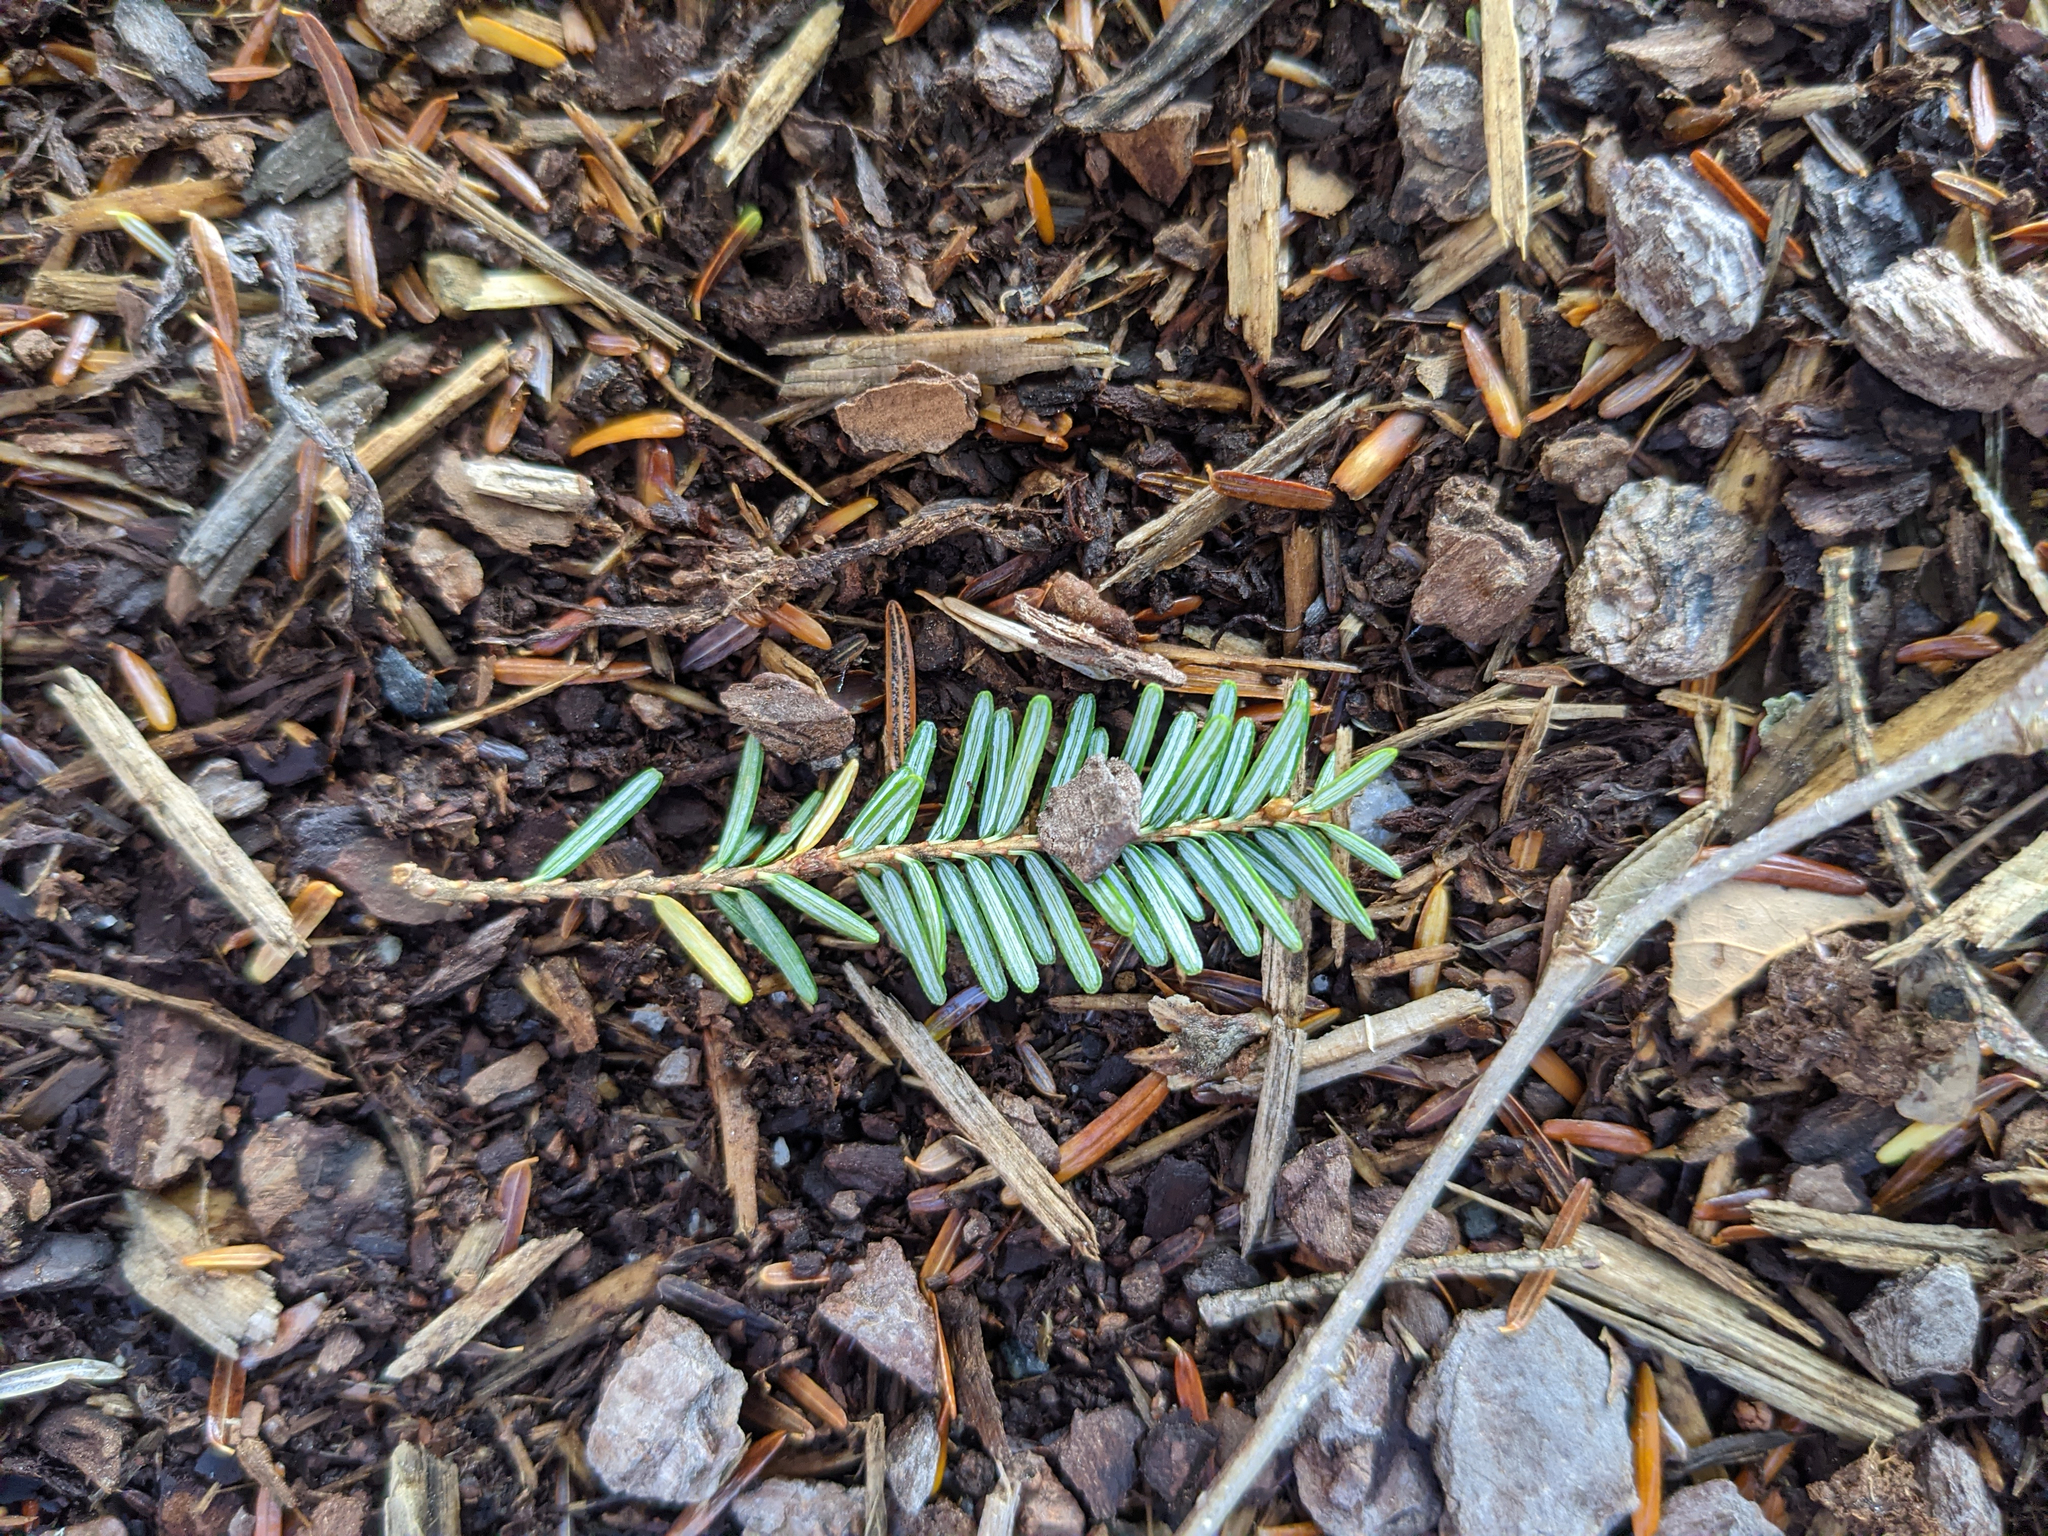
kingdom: Plantae
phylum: Tracheophyta
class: Pinopsida
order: Pinales
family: Pinaceae
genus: Tsuga
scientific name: Tsuga canadensis
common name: Eastern hemlock
